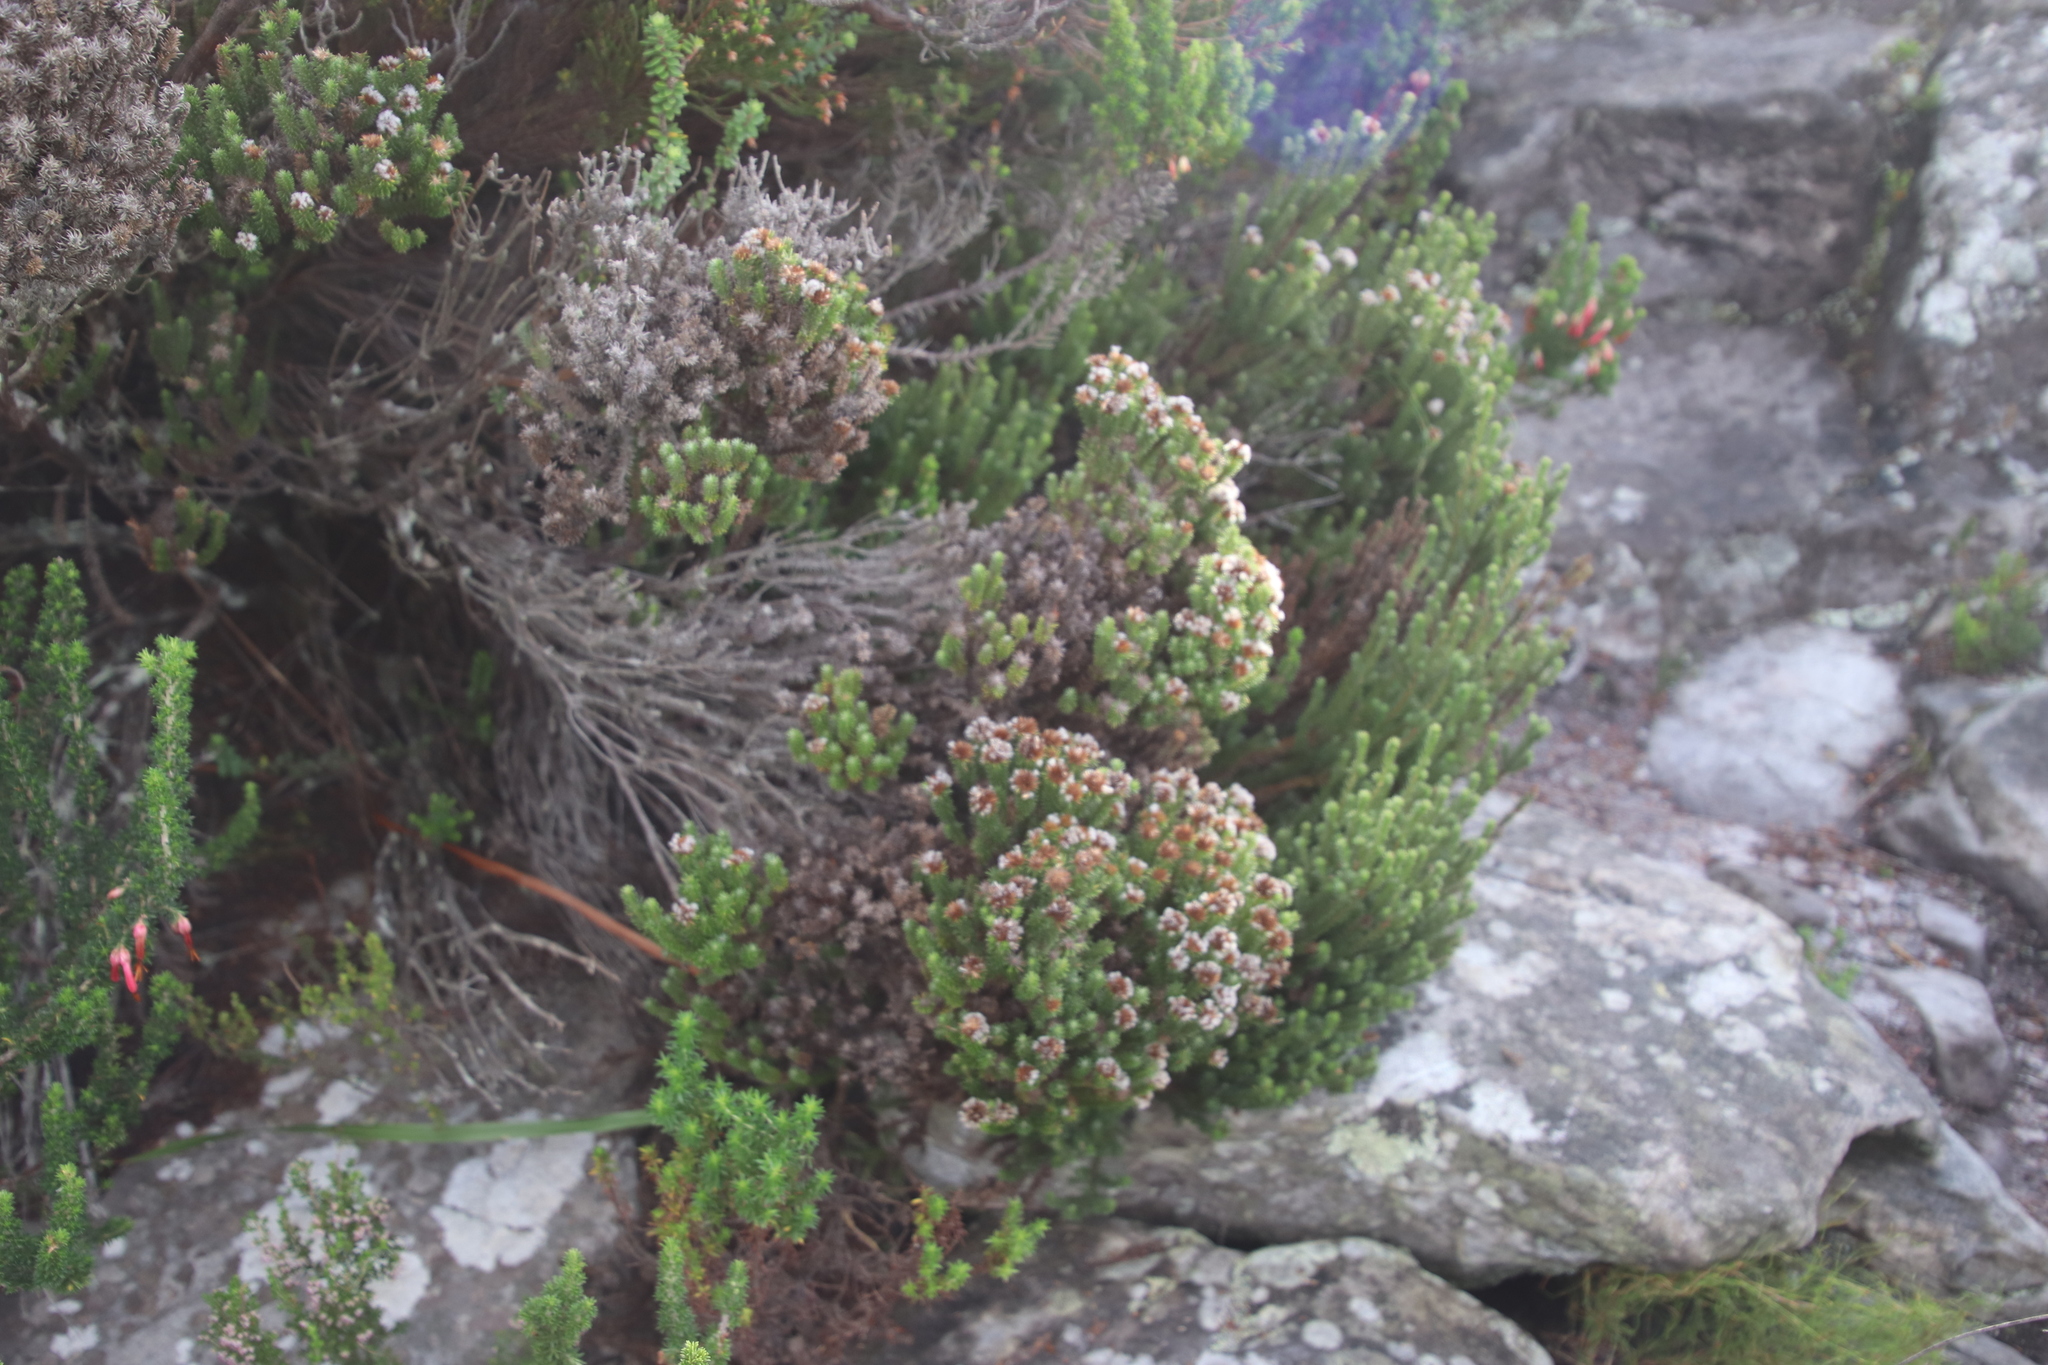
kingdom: Plantae
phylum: Tracheophyta
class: Magnoliopsida
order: Asterales
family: Asteraceae
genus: Stoebe
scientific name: Stoebe rosea
